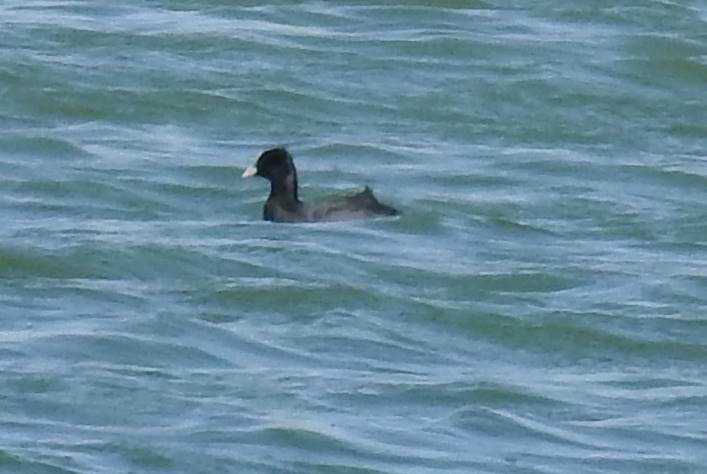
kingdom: Animalia
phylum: Chordata
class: Aves
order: Gruiformes
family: Rallidae
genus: Fulica
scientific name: Fulica atra
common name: Eurasian coot
